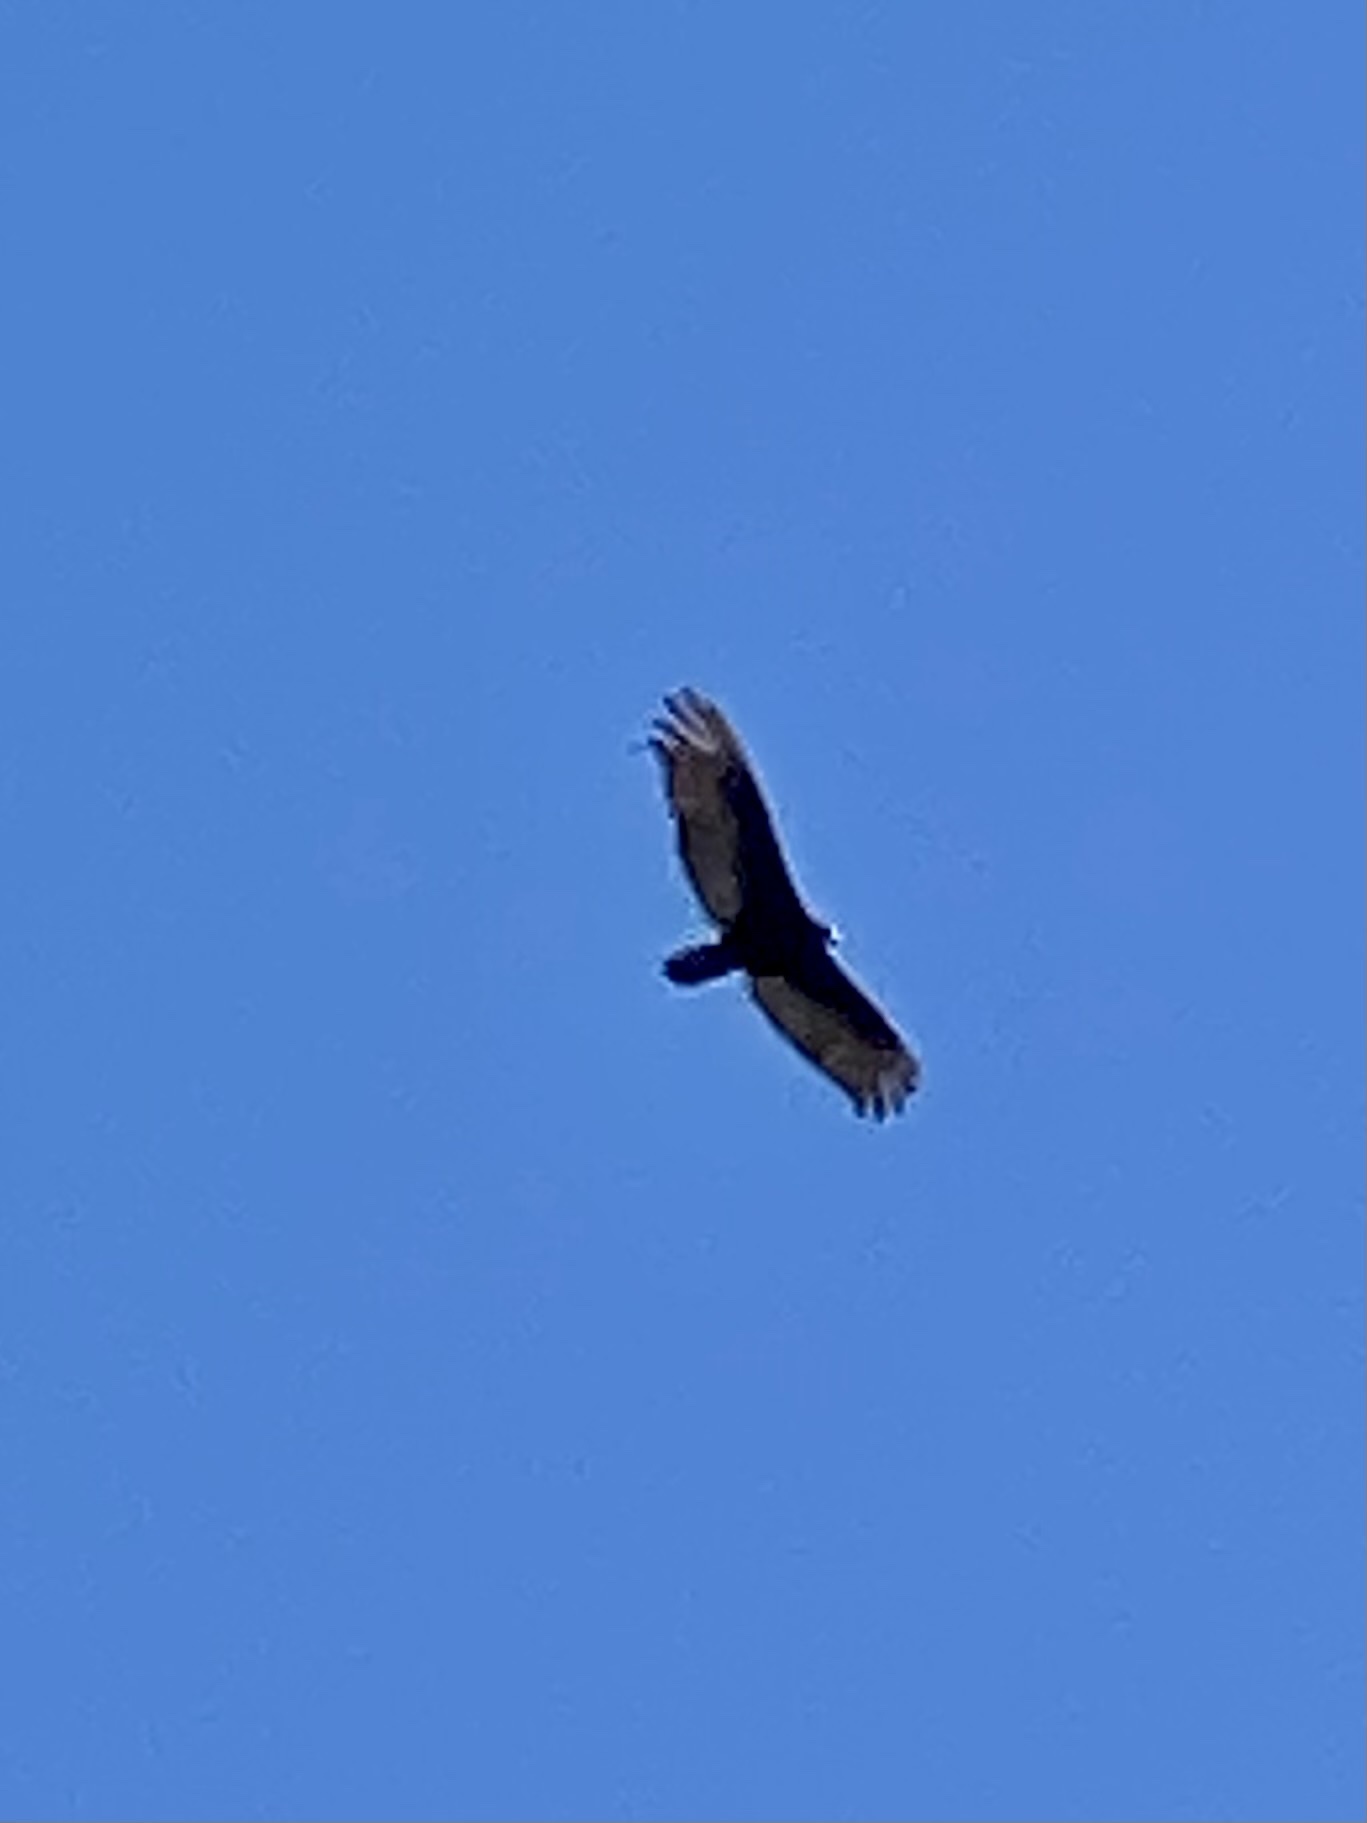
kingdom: Animalia
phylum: Chordata
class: Aves
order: Accipitriformes
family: Cathartidae
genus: Cathartes
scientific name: Cathartes aura
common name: Turkey vulture
